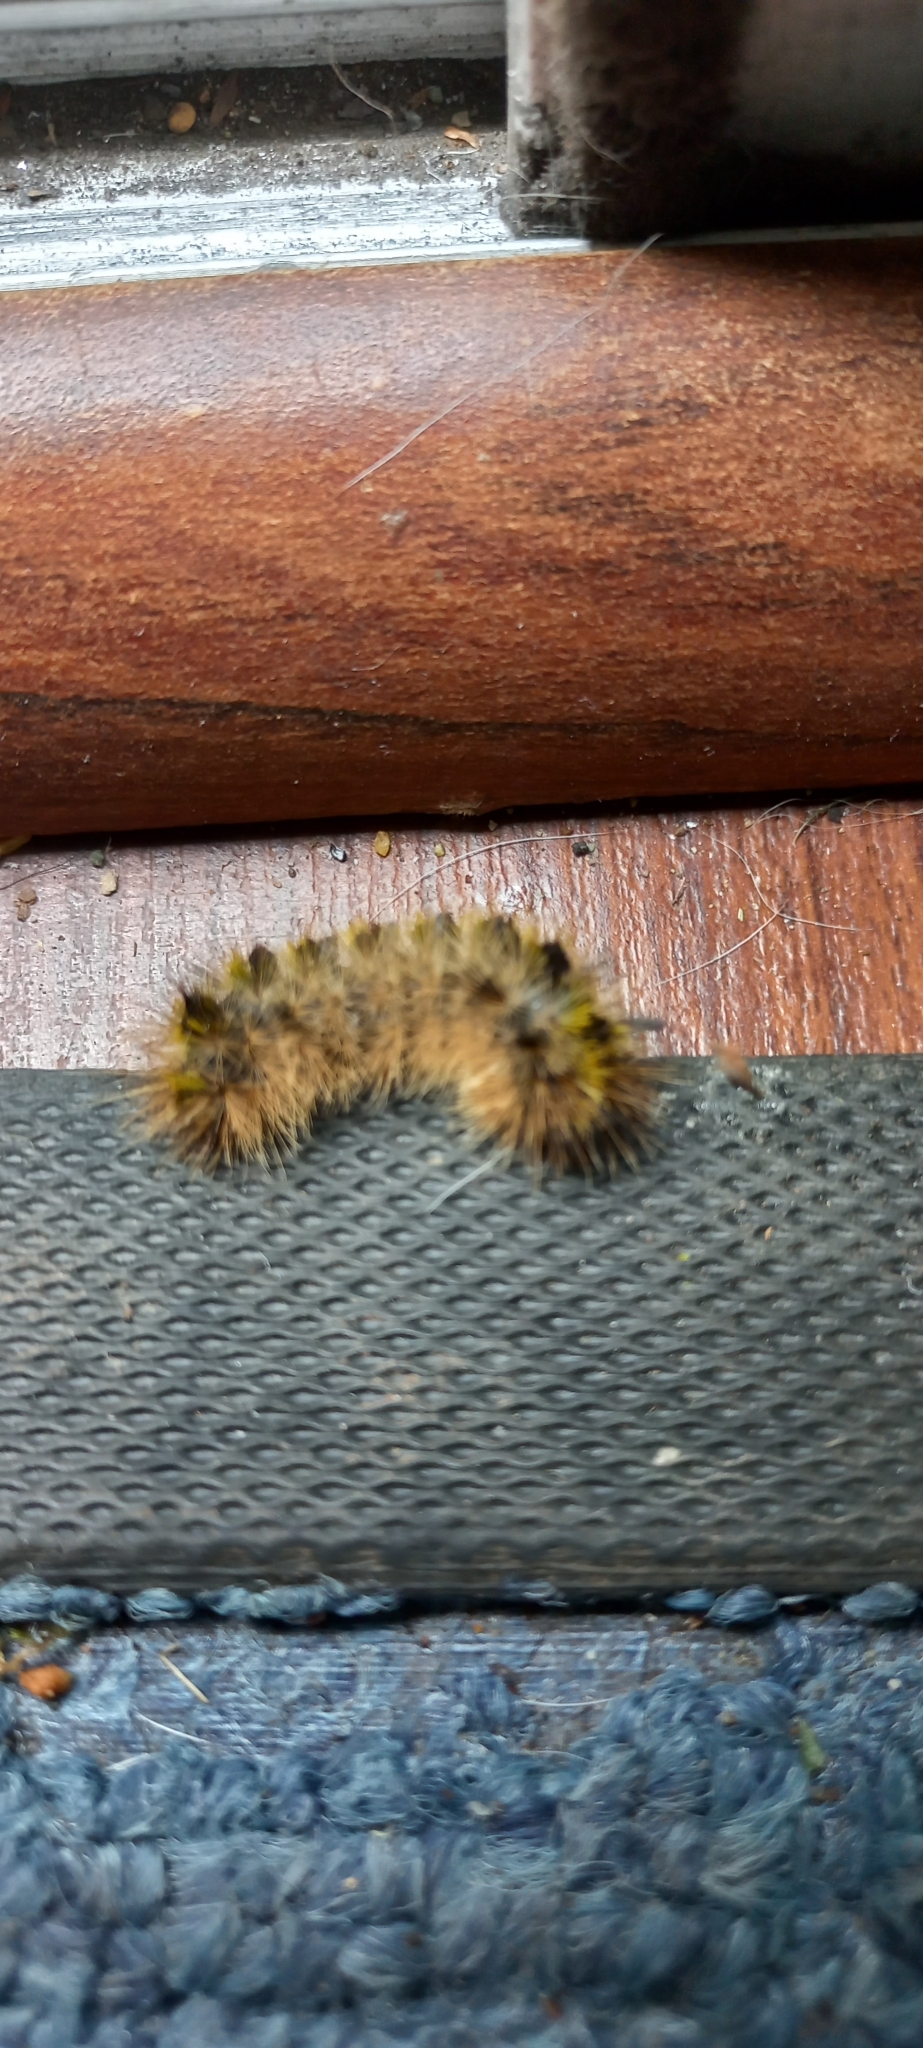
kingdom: Animalia
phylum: Arthropoda
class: Insecta
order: Lepidoptera
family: Erebidae
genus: Lophocampa
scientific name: Lophocampa argentata
